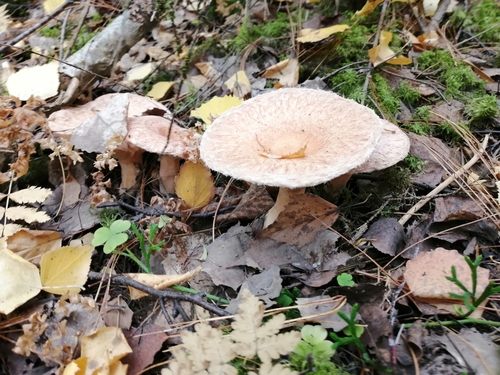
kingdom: Fungi
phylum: Basidiomycota
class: Agaricomycetes
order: Russulales
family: Russulaceae
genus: Lactarius
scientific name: Lactarius torminosus
